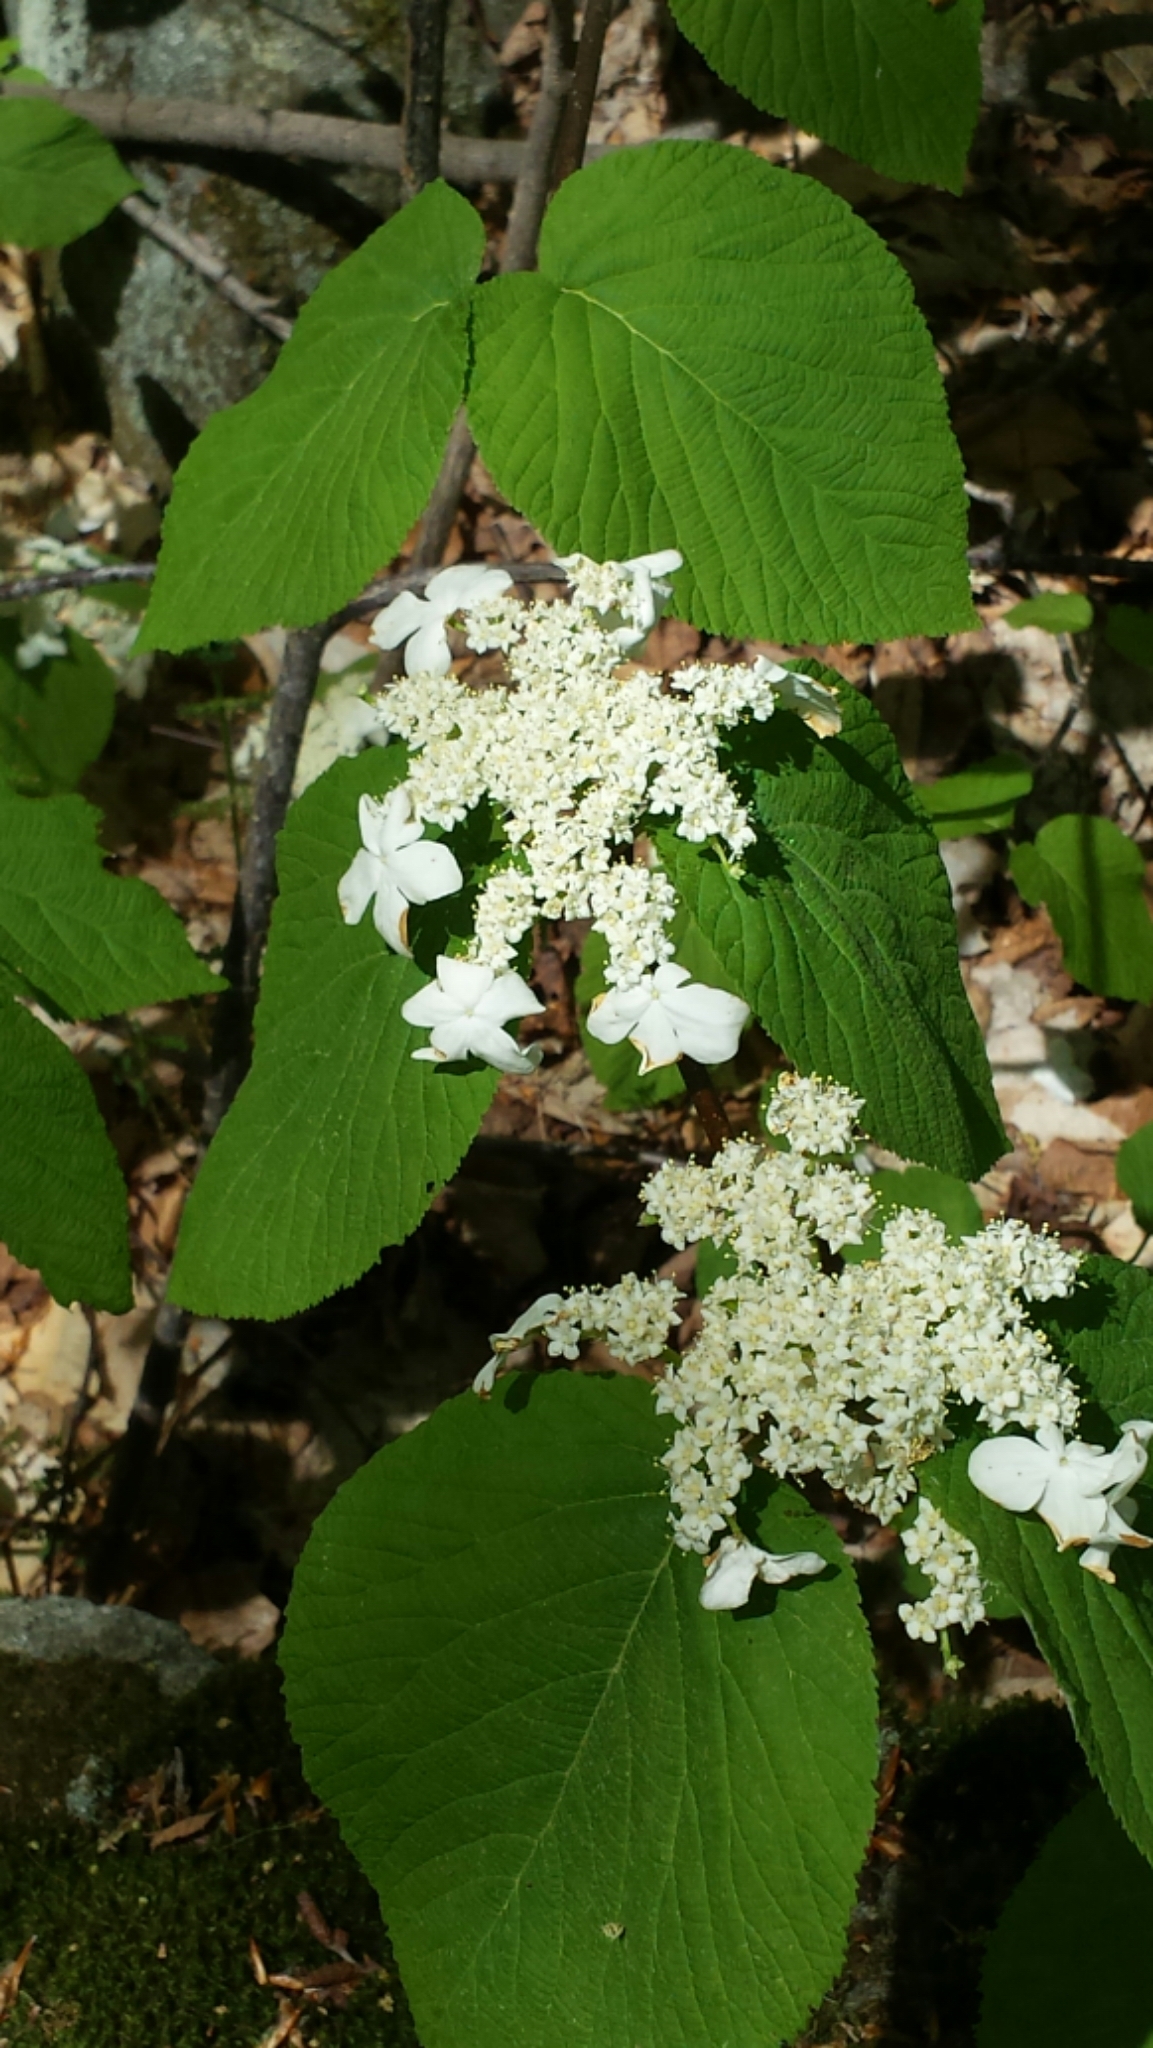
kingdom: Plantae
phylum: Tracheophyta
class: Magnoliopsida
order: Dipsacales
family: Viburnaceae
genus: Viburnum
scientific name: Viburnum lantanoides
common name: Hobblebush
